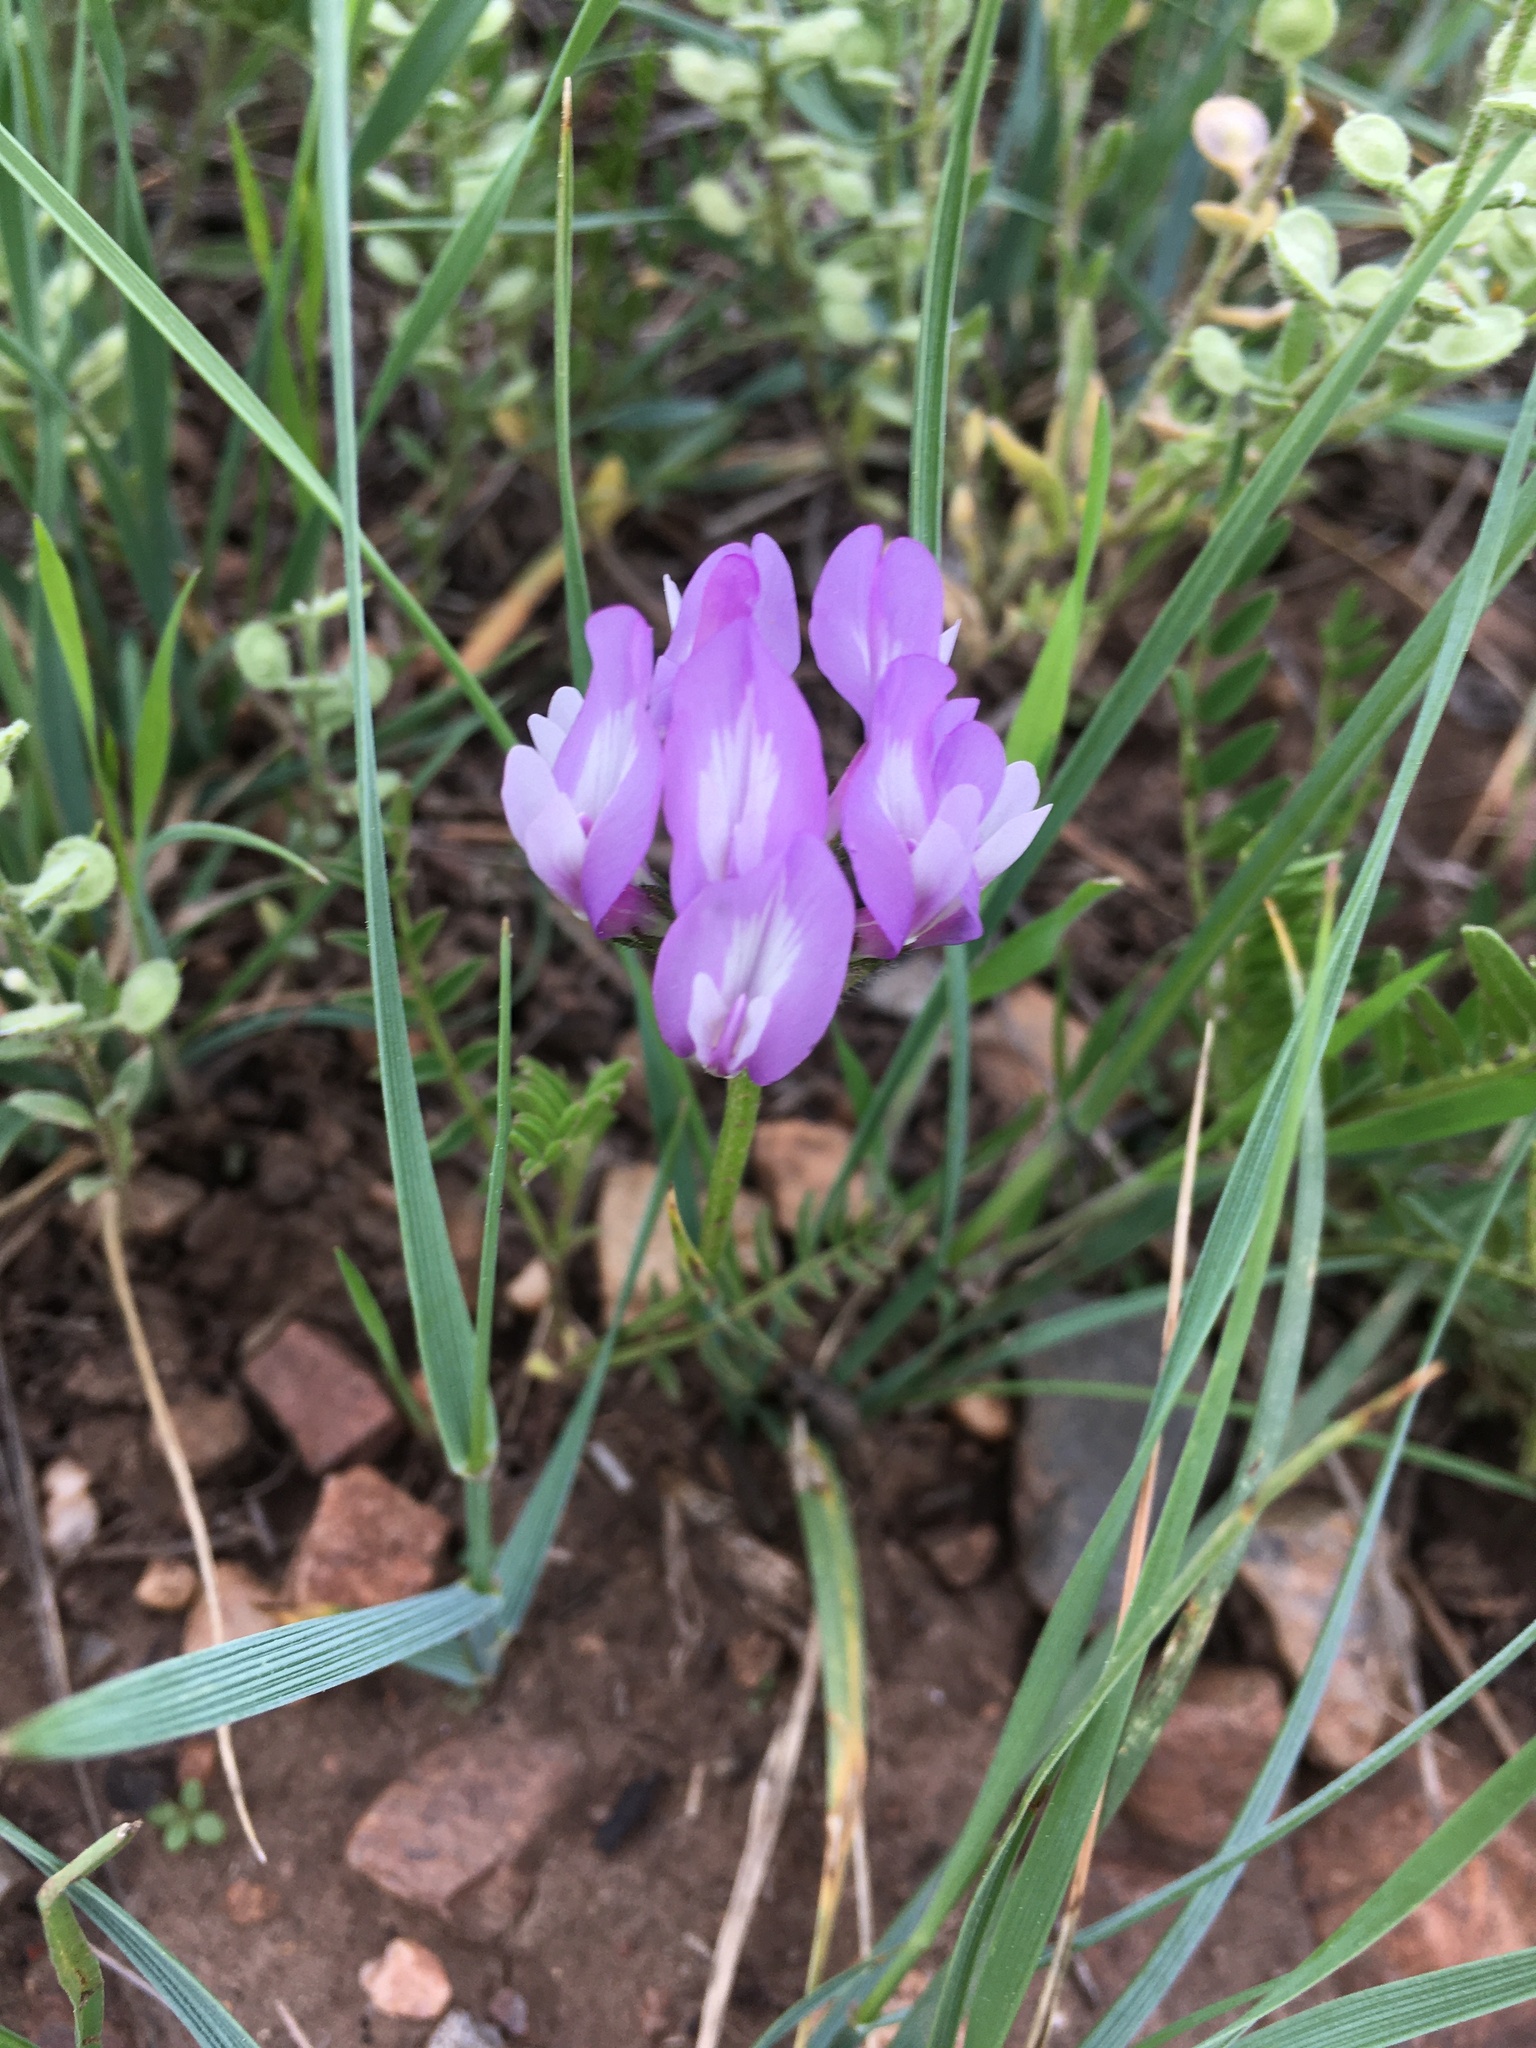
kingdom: Plantae
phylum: Tracheophyta
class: Magnoliopsida
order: Fabales
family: Fabaceae
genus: Astragalus
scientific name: Astragalus agrestis
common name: Field milk-vetch
